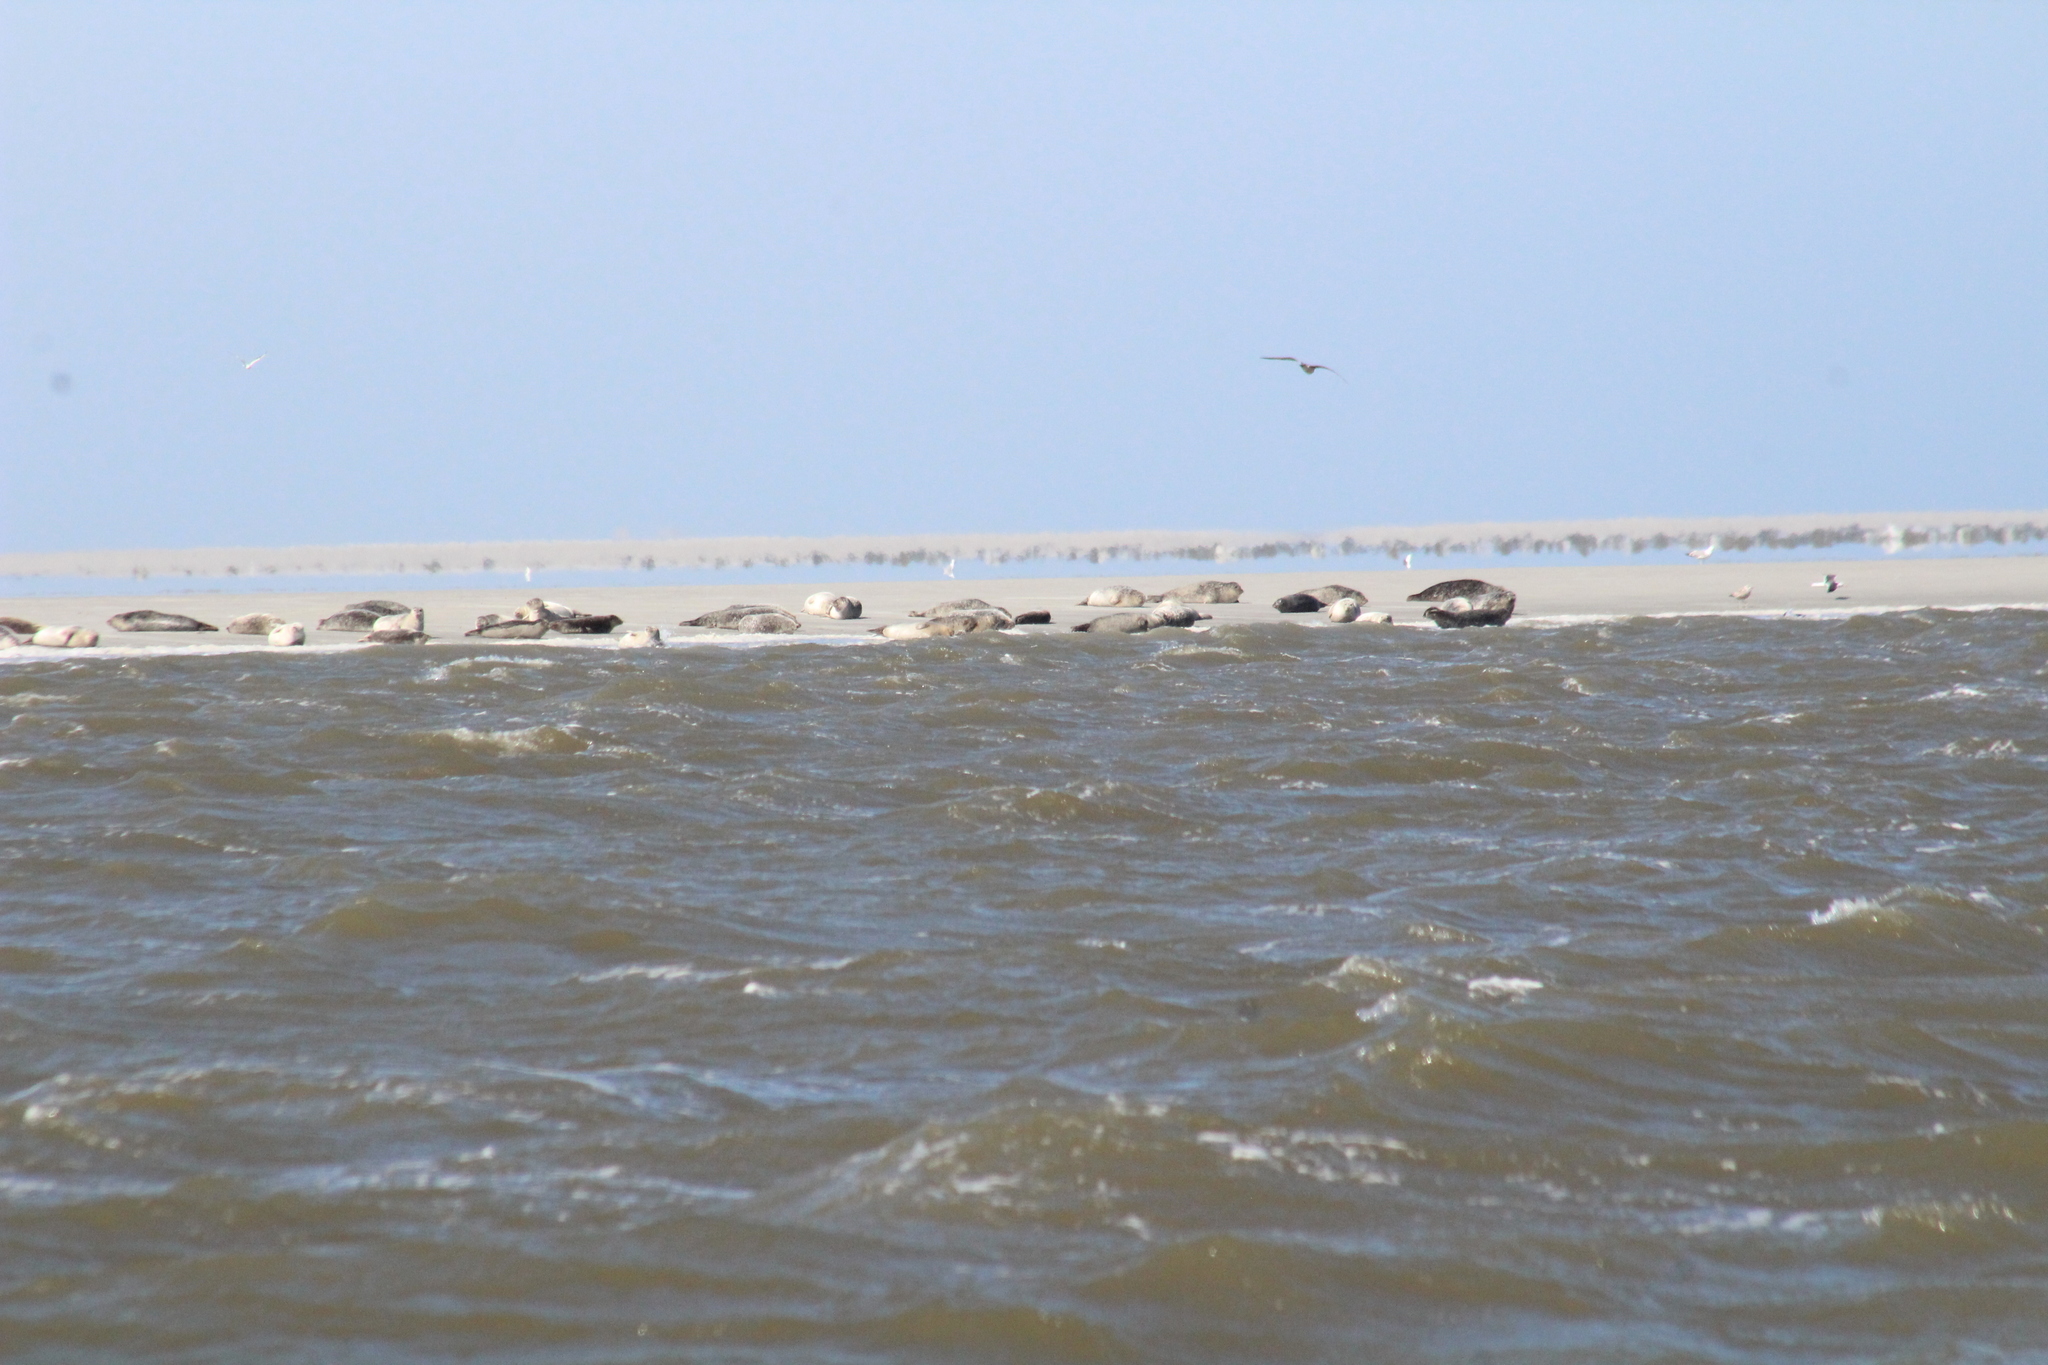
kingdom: Animalia
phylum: Chordata
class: Mammalia
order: Carnivora
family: Phocidae
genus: Phoca
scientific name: Phoca vitulina
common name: Harbor seal
